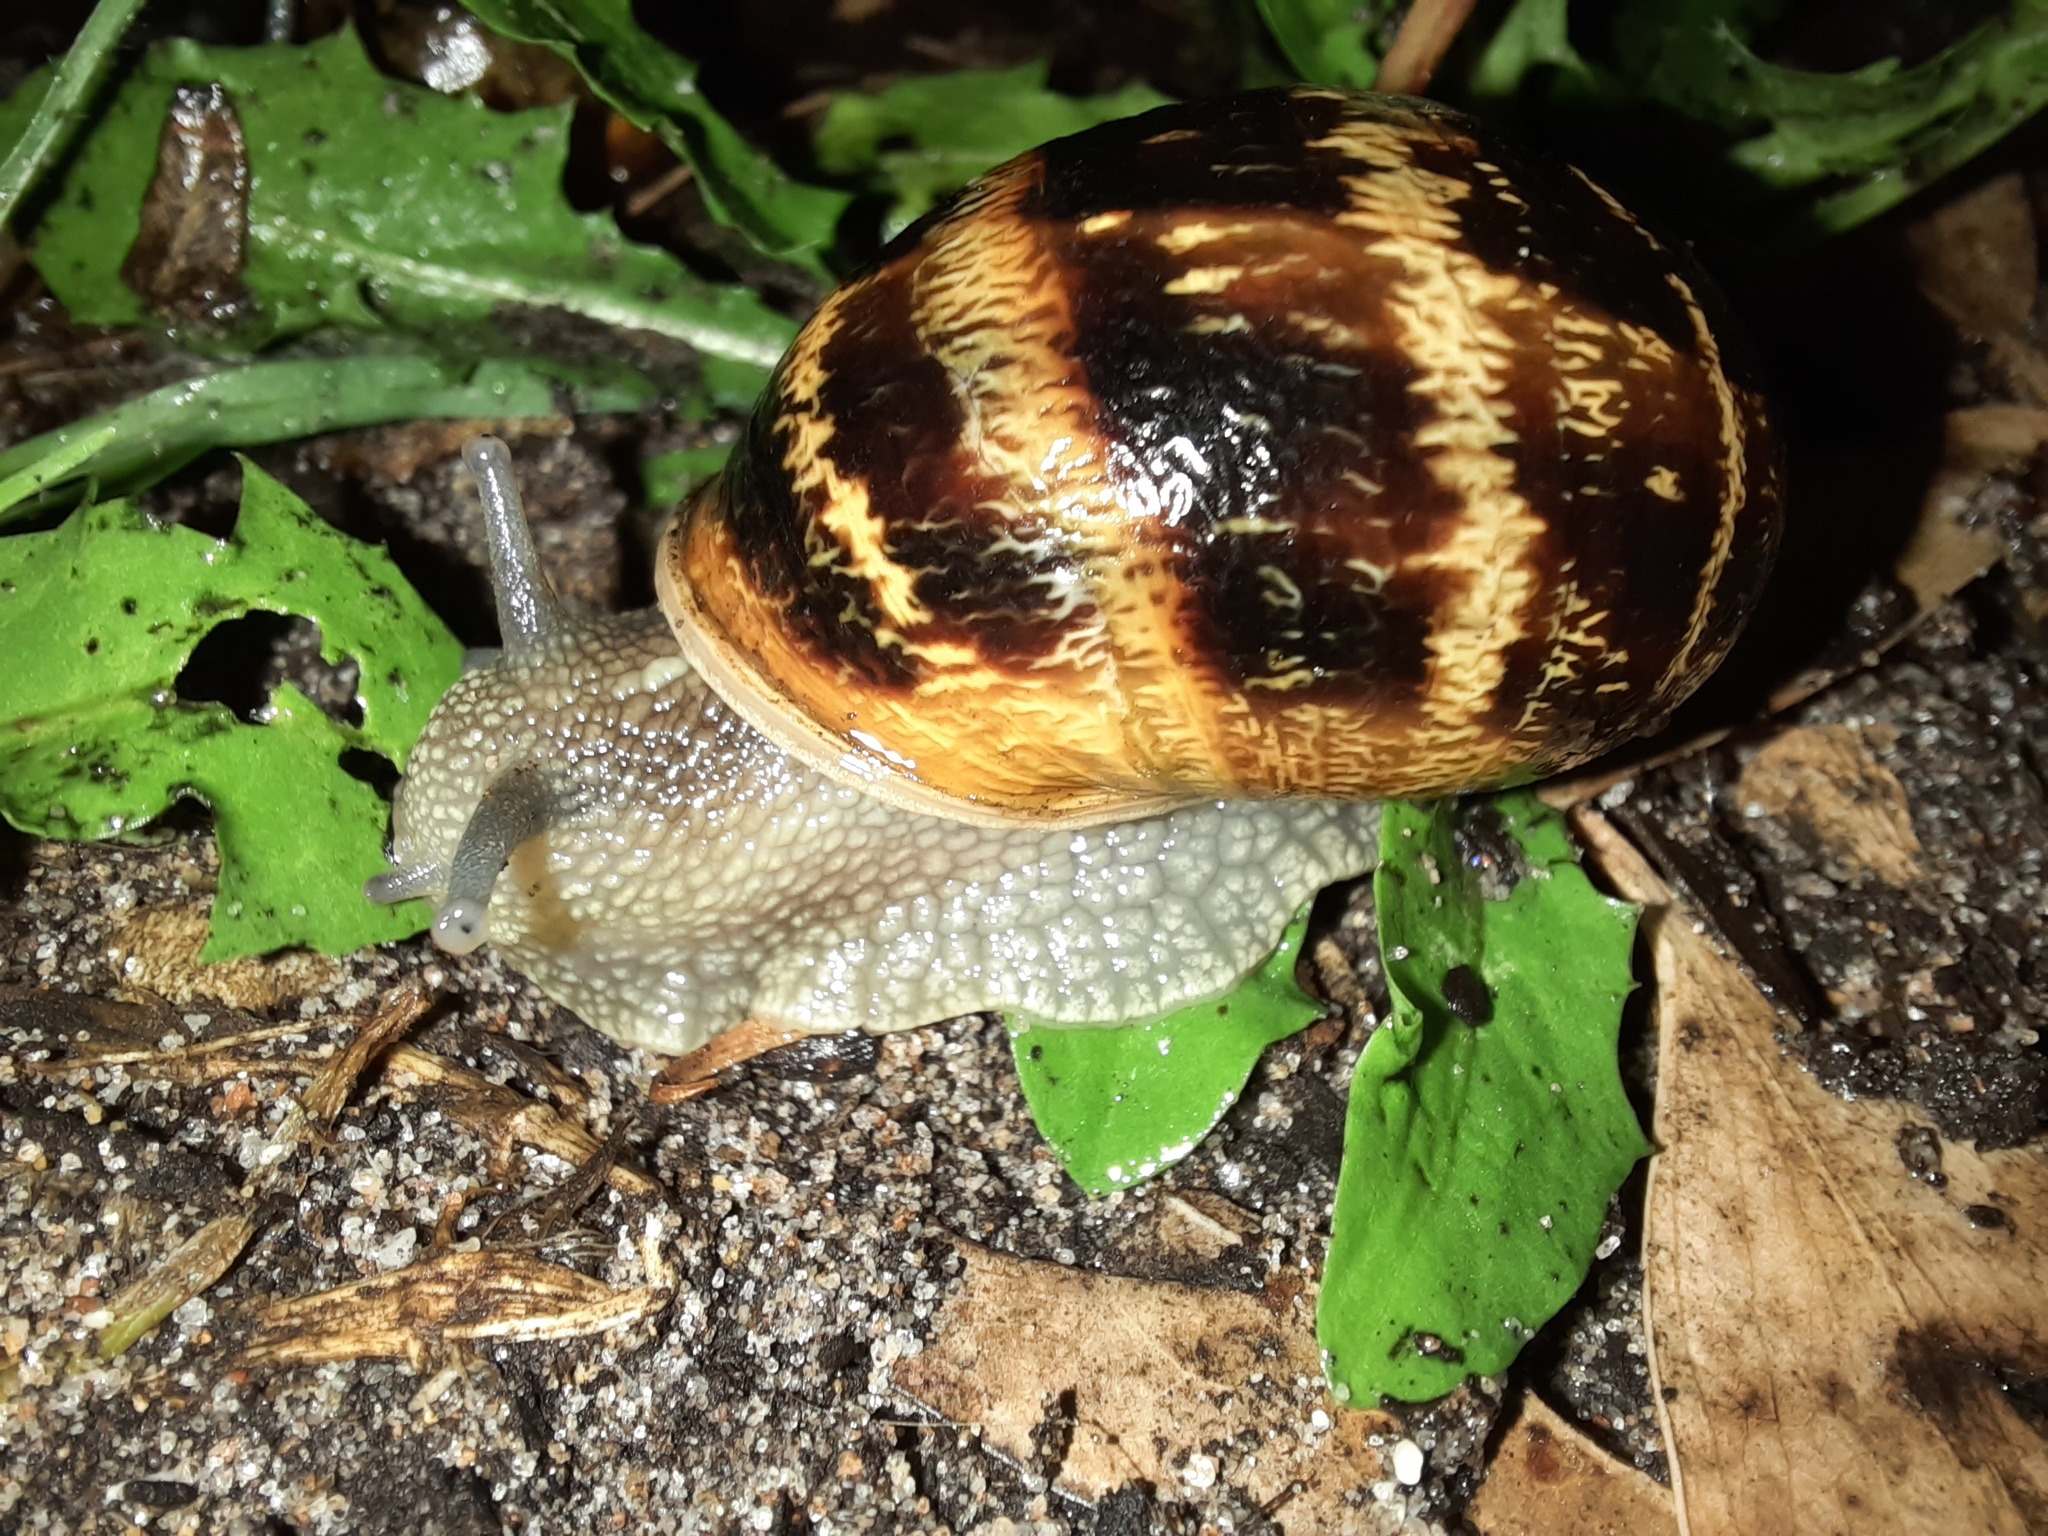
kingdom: Animalia
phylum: Mollusca
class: Gastropoda
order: Stylommatophora
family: Helicidae
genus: Cornu
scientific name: Cornu aspersum
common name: Brown garden snail
